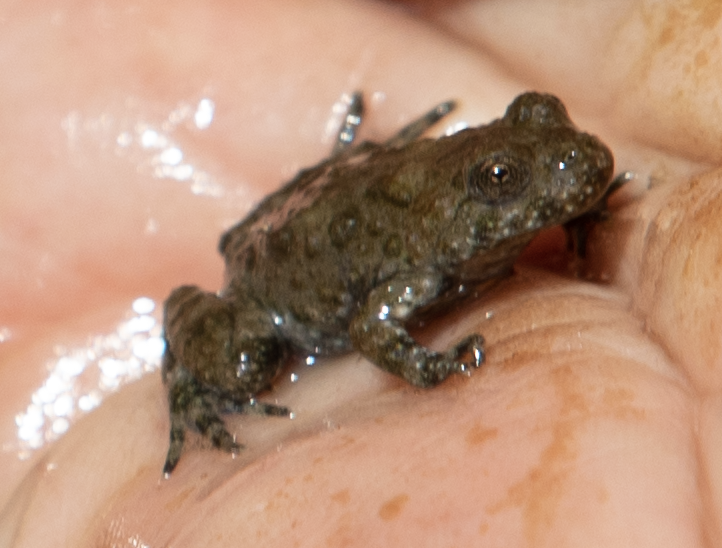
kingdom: Animalia
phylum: Chordata
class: Amphibia
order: Anura
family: Bombinatoridae
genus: Bombina
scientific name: Bombina variegata
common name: Yellow-bellied toad
